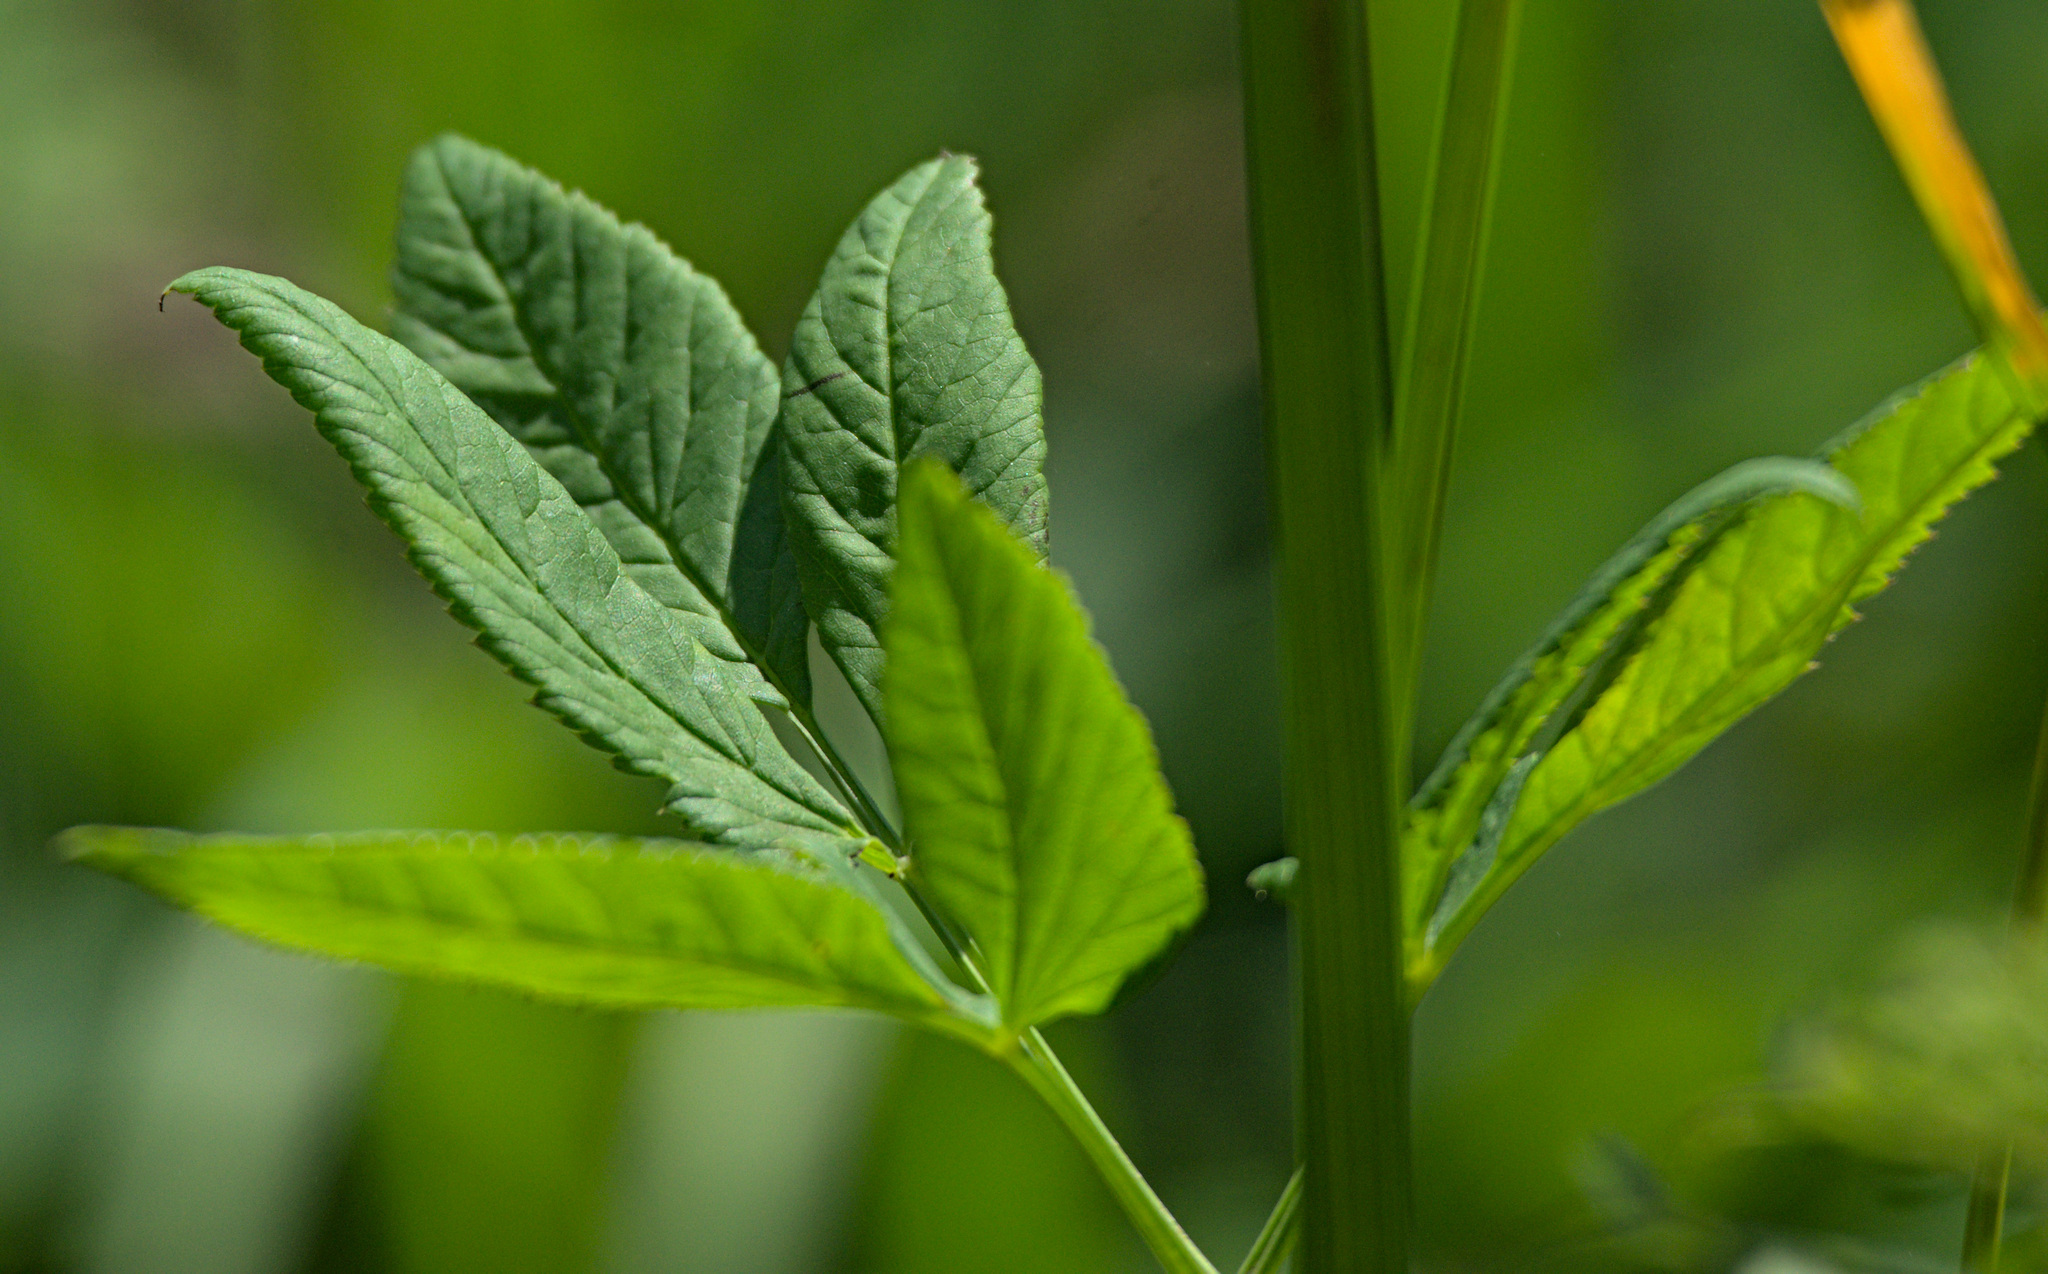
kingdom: Plantae
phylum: Tracheophyta
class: Magnoliopsida
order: Apiales
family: Apiaceae
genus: Aegopodium
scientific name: Aegopodium podagraria
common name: Ground-elder
